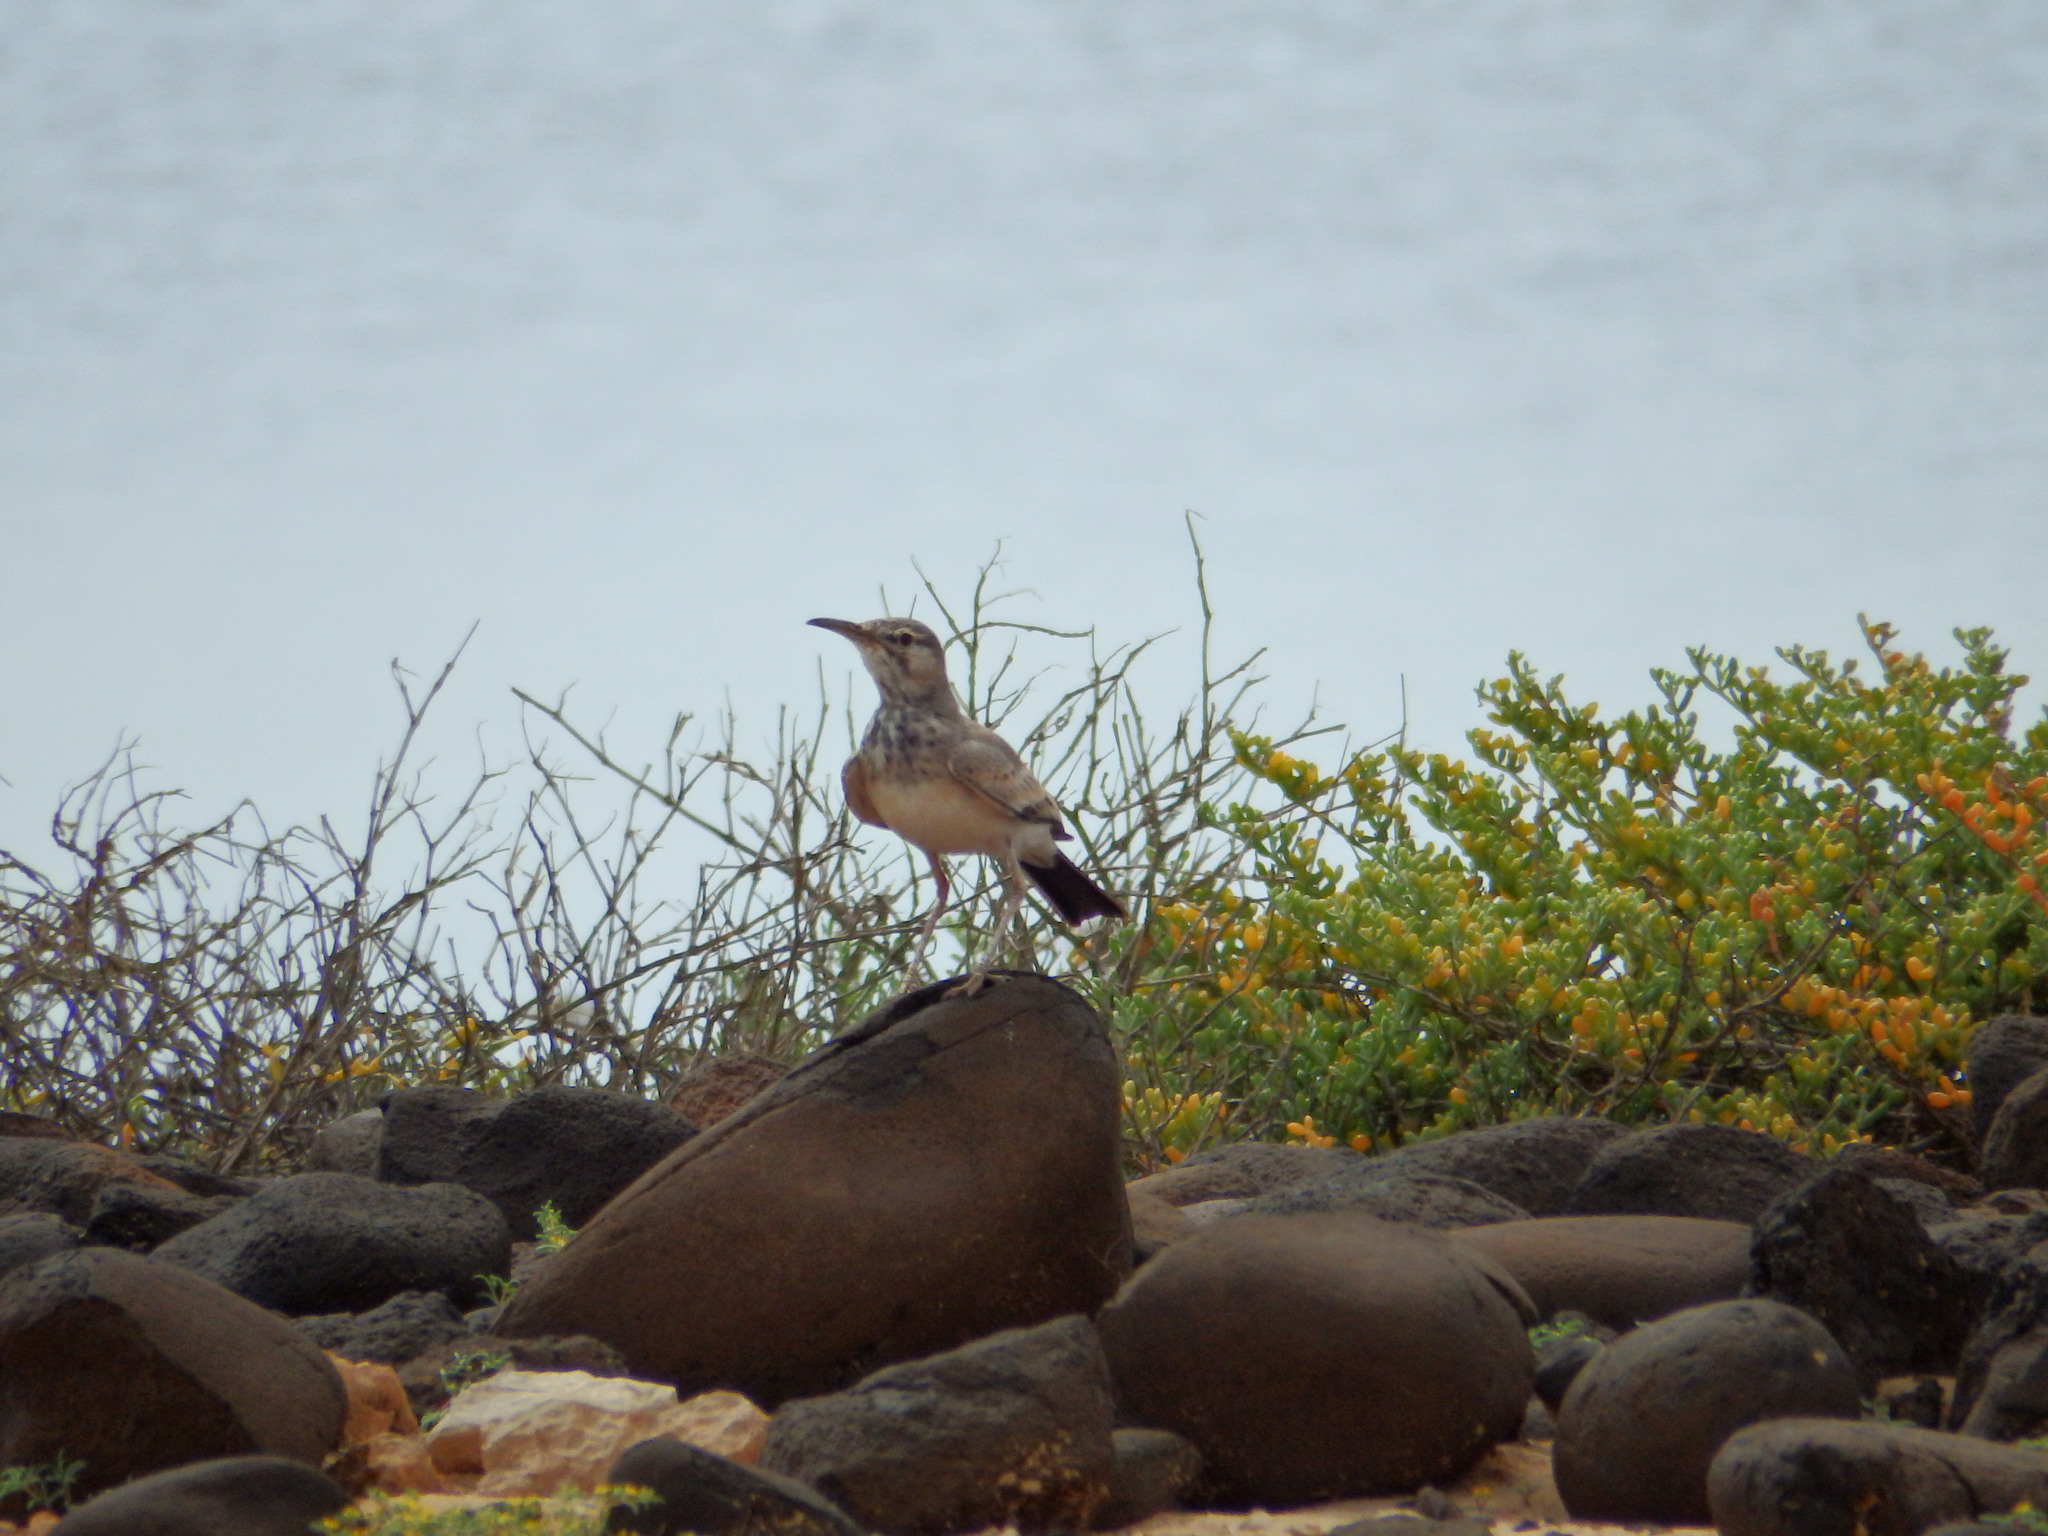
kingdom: Animalia
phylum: Chordata
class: Aves
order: Passeriformes
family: Alaudidae
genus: Alaemon
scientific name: Alaemon alaudipes
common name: Greater hoopoe-lark
